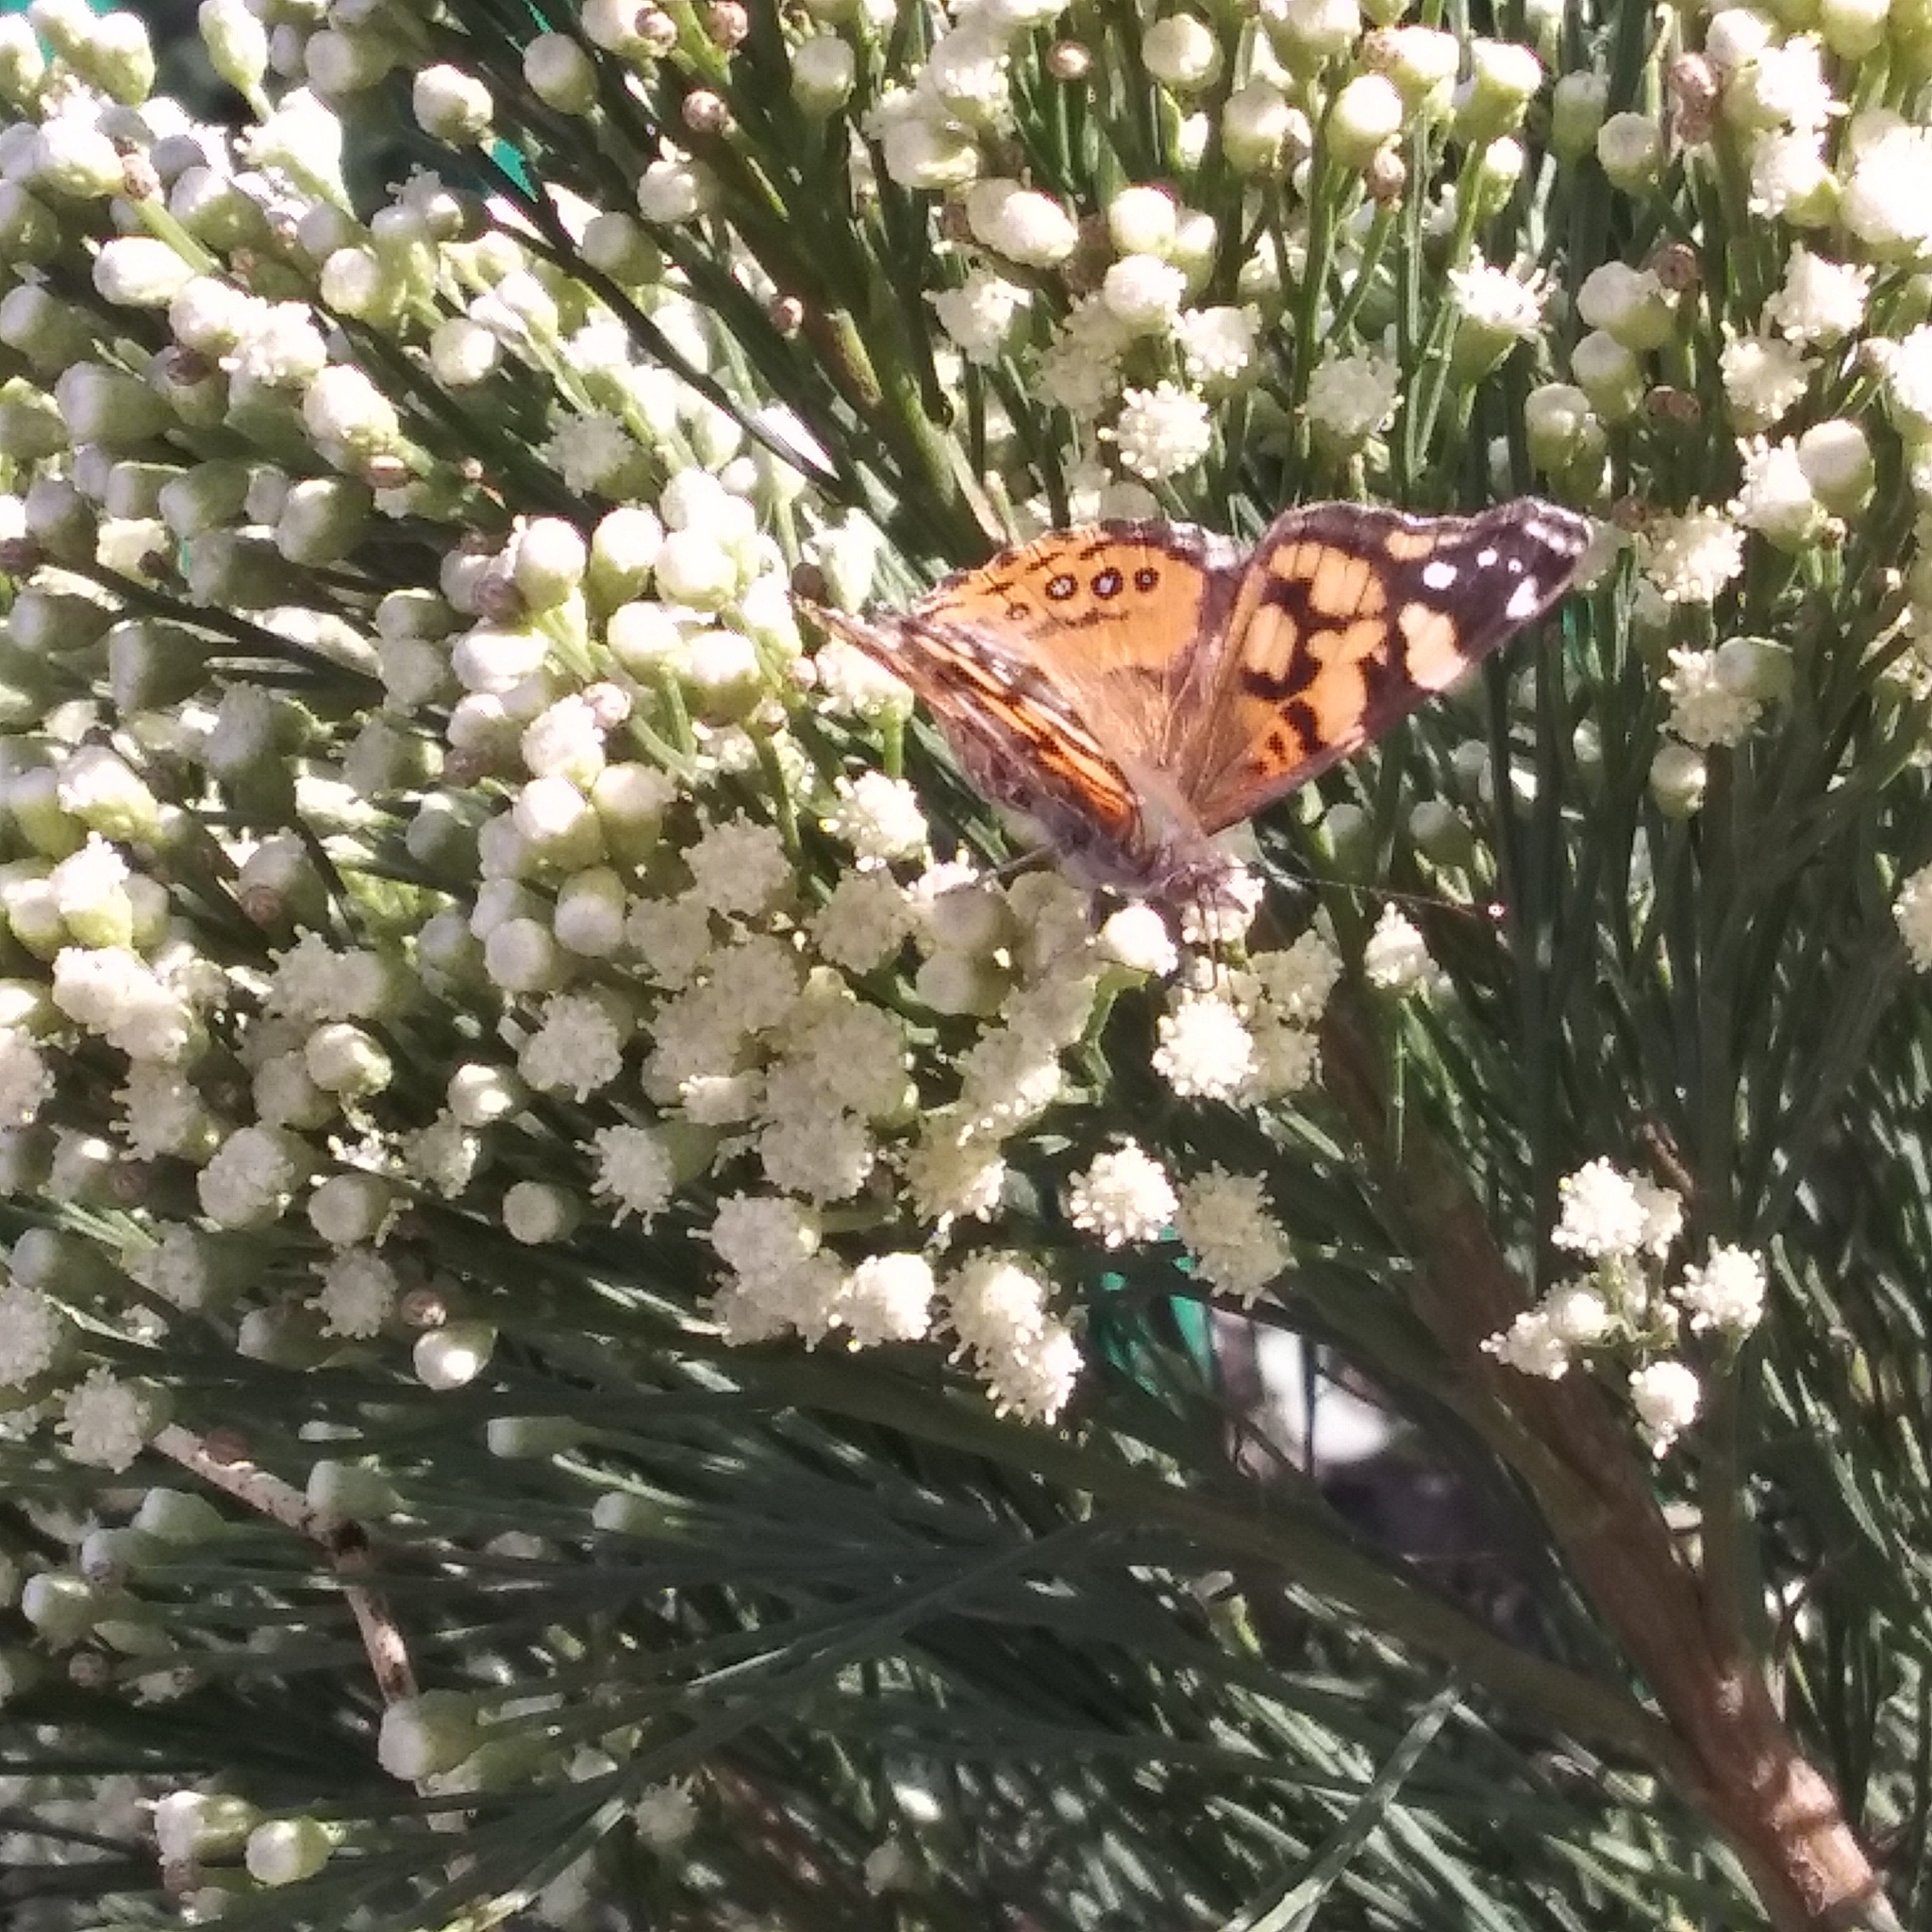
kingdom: Animalia
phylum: Arthropoda
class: Insecta
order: Lepidoptera
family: Nymphalidae
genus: Vanessa
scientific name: Vanessa annabella
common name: West coast lady
